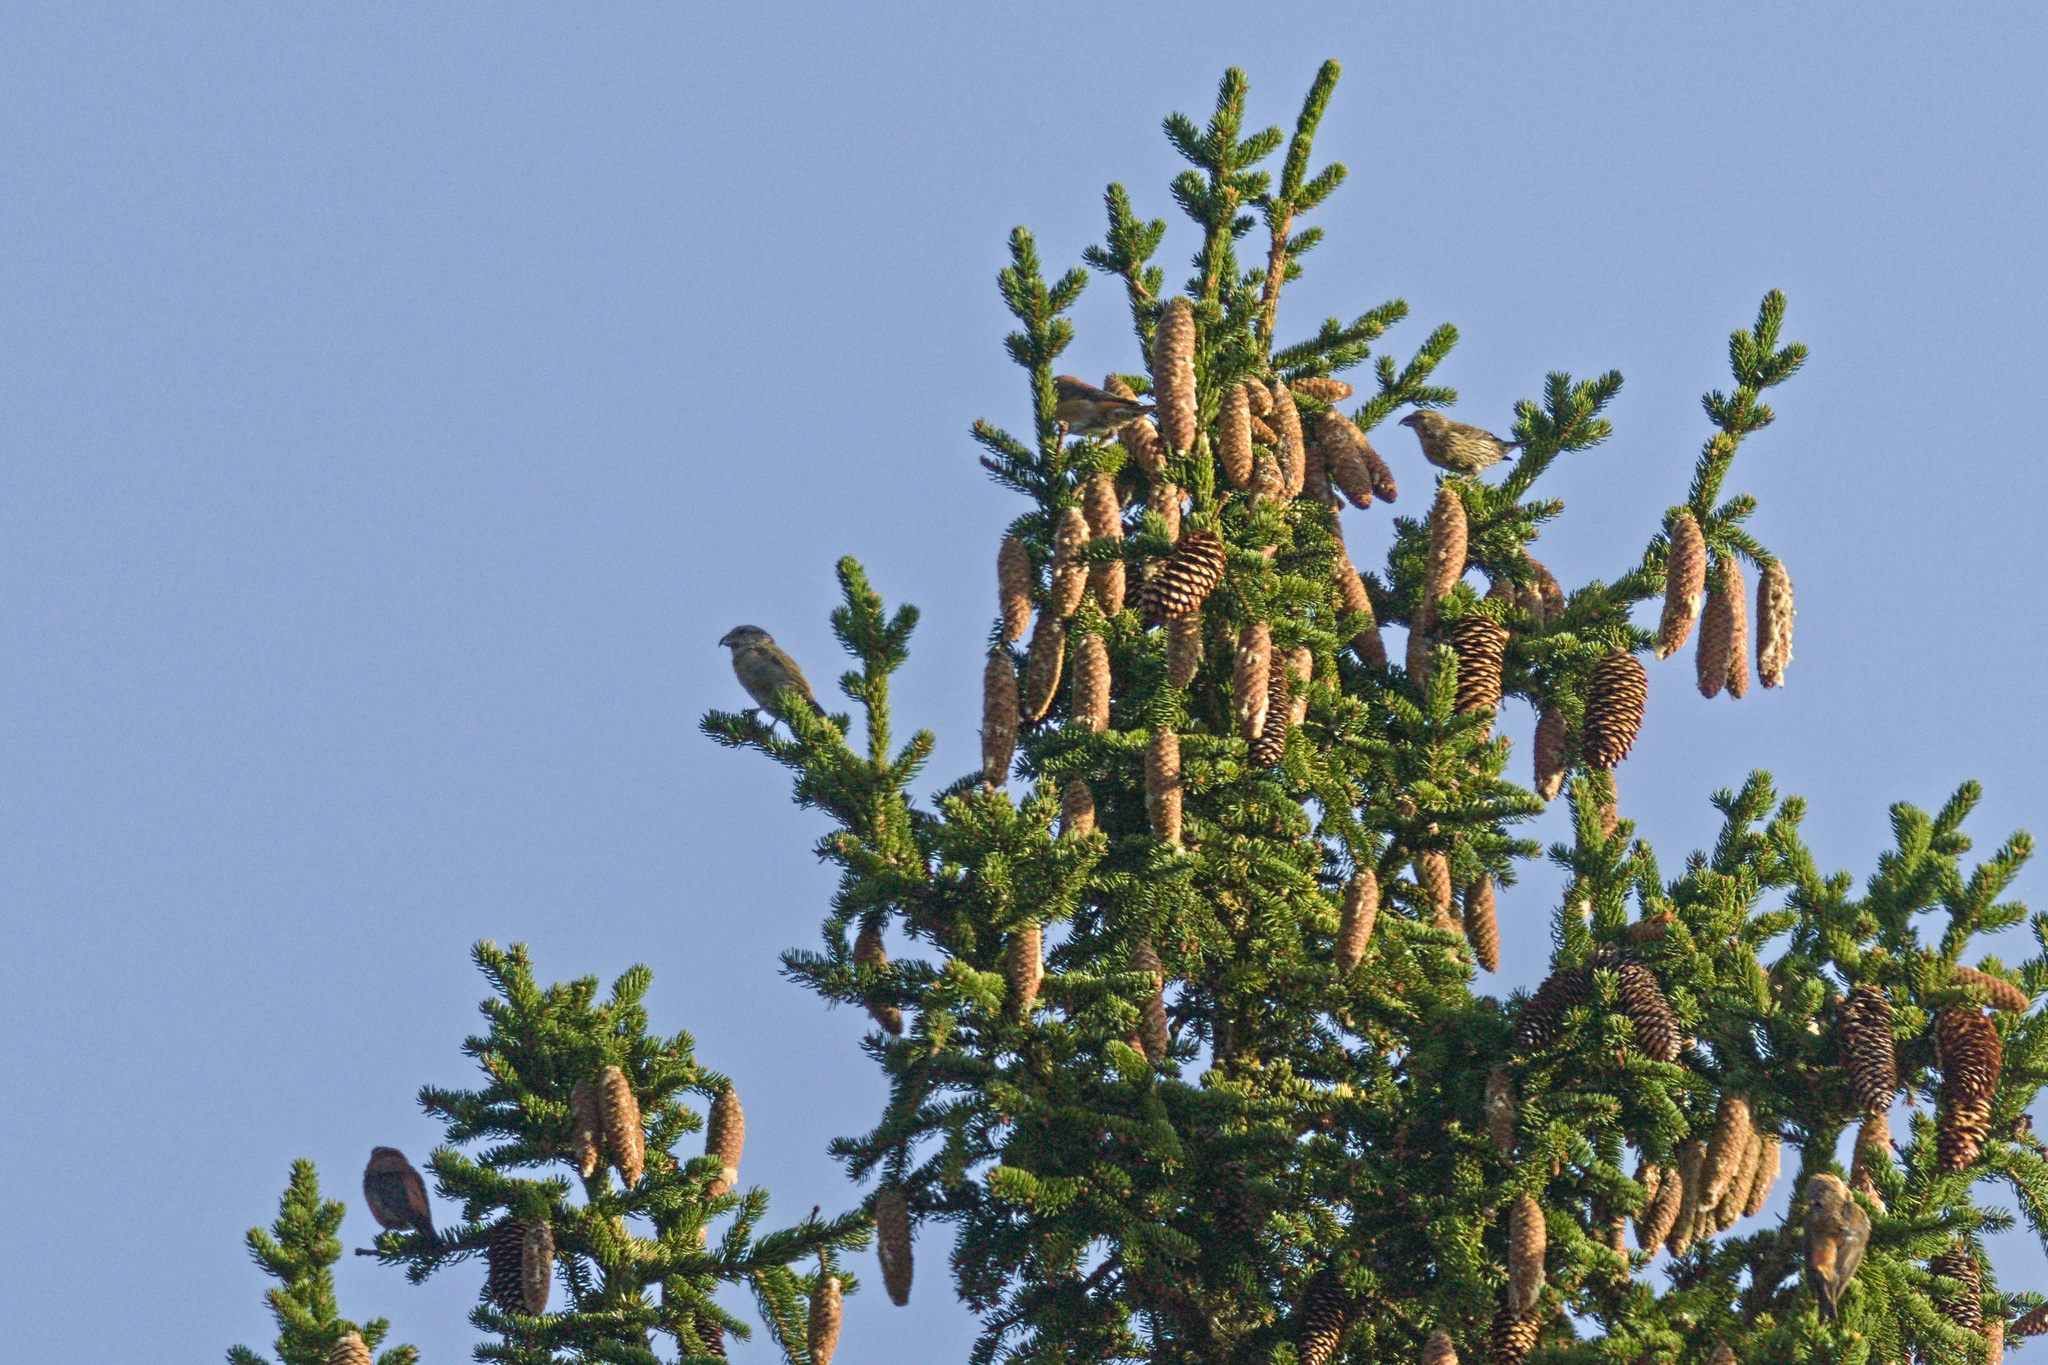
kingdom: Animalia
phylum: Chordata
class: Aves
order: Passeriformes
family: Fringillidae
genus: Loxia
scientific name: Loxia curvirostra
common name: Red crossbill
